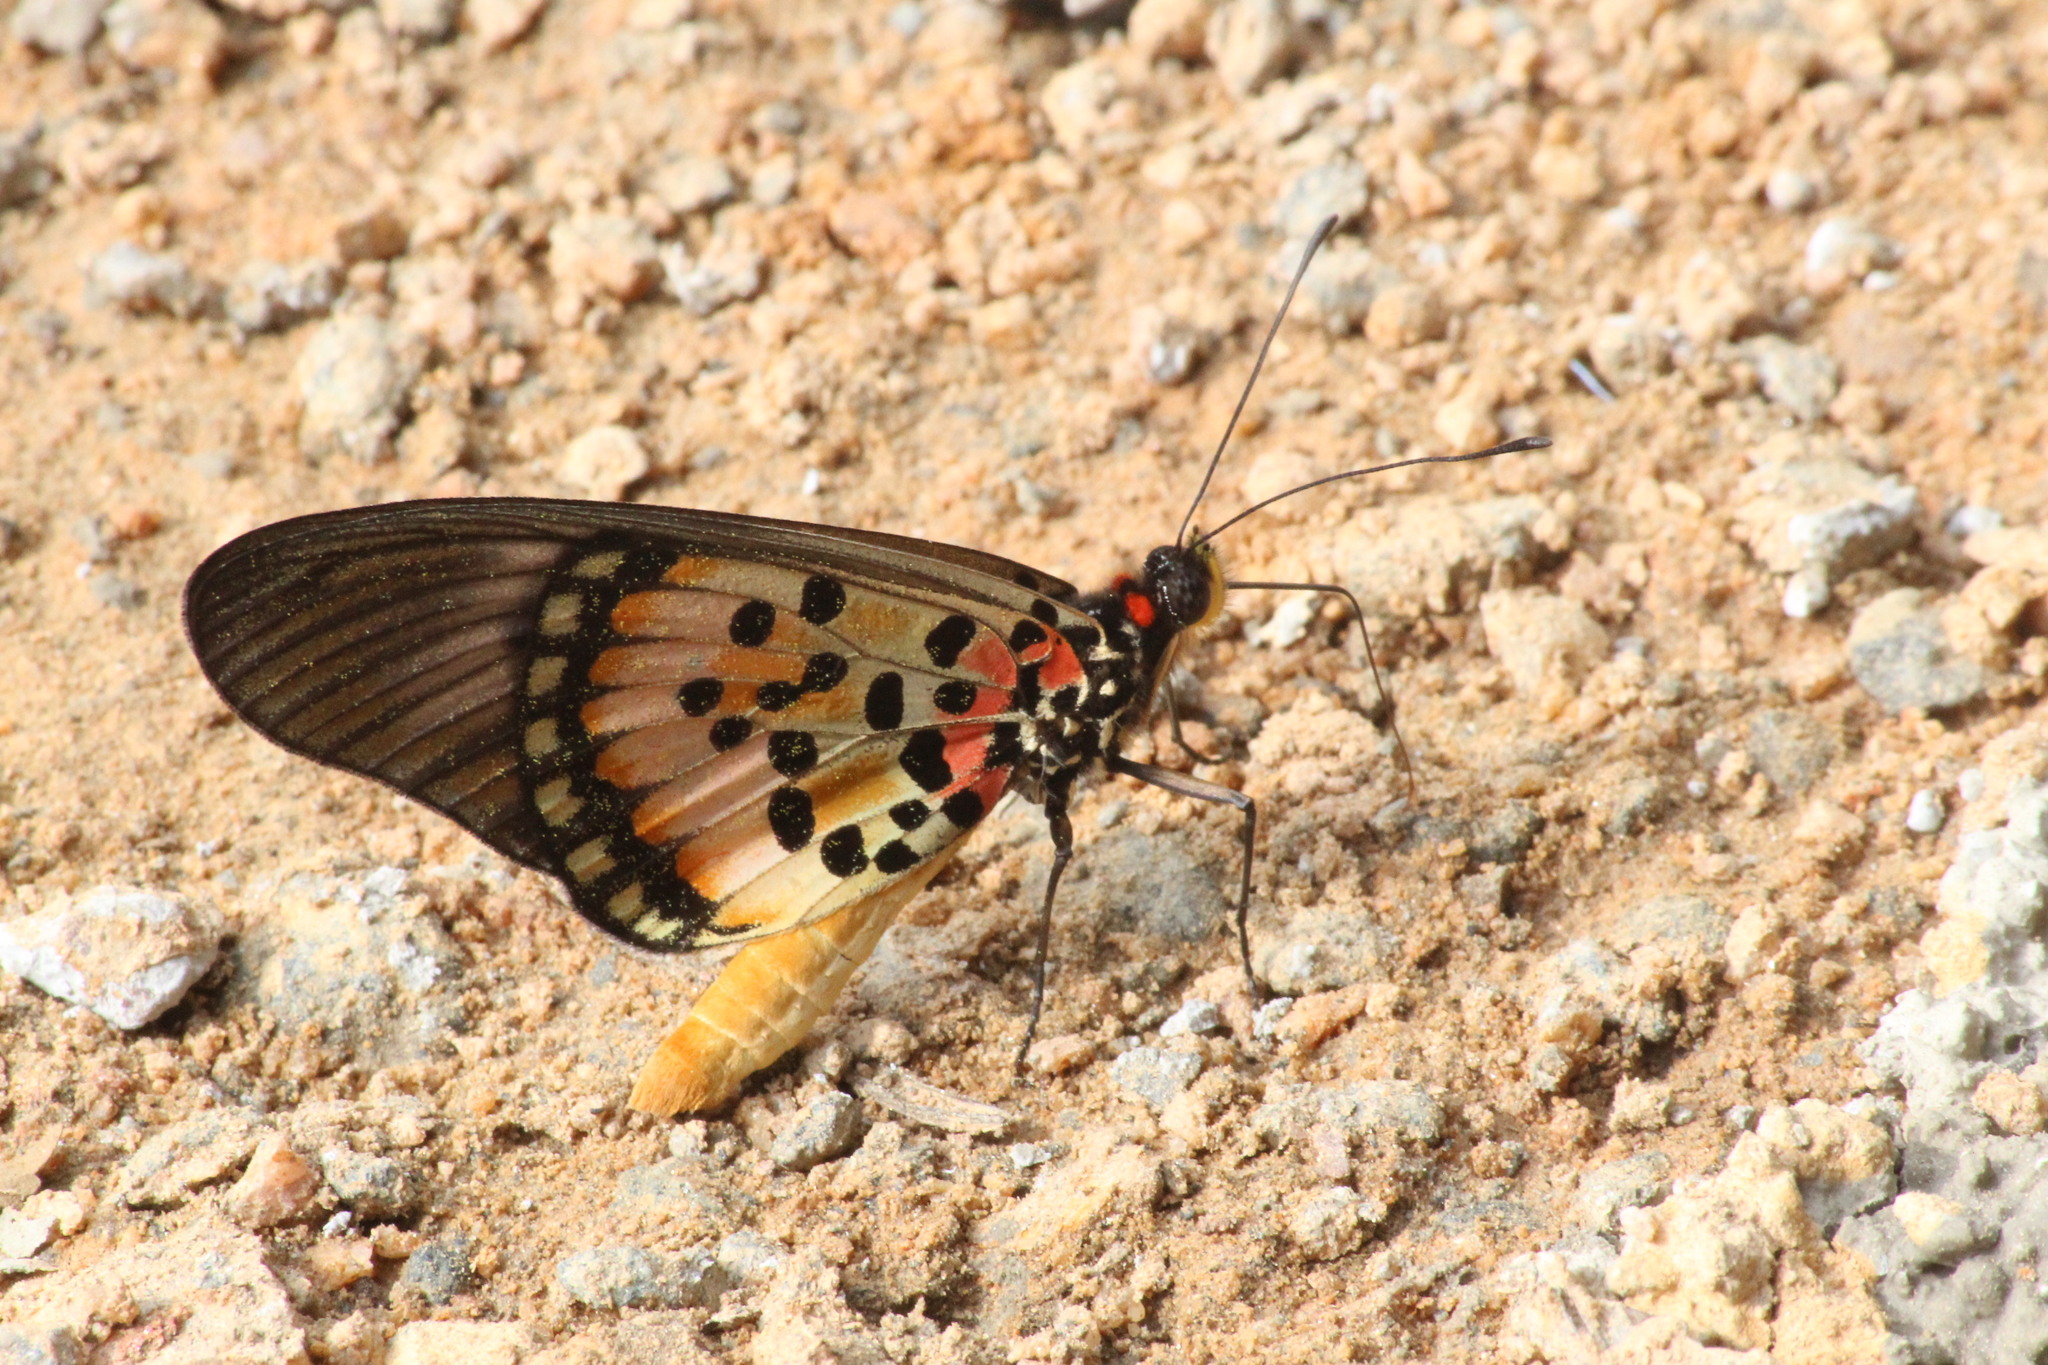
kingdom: Animalia
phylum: Arthropoda
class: Insecta
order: Lepidoptera
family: Nymphalidae
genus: Rubraea
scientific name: Rubraea
